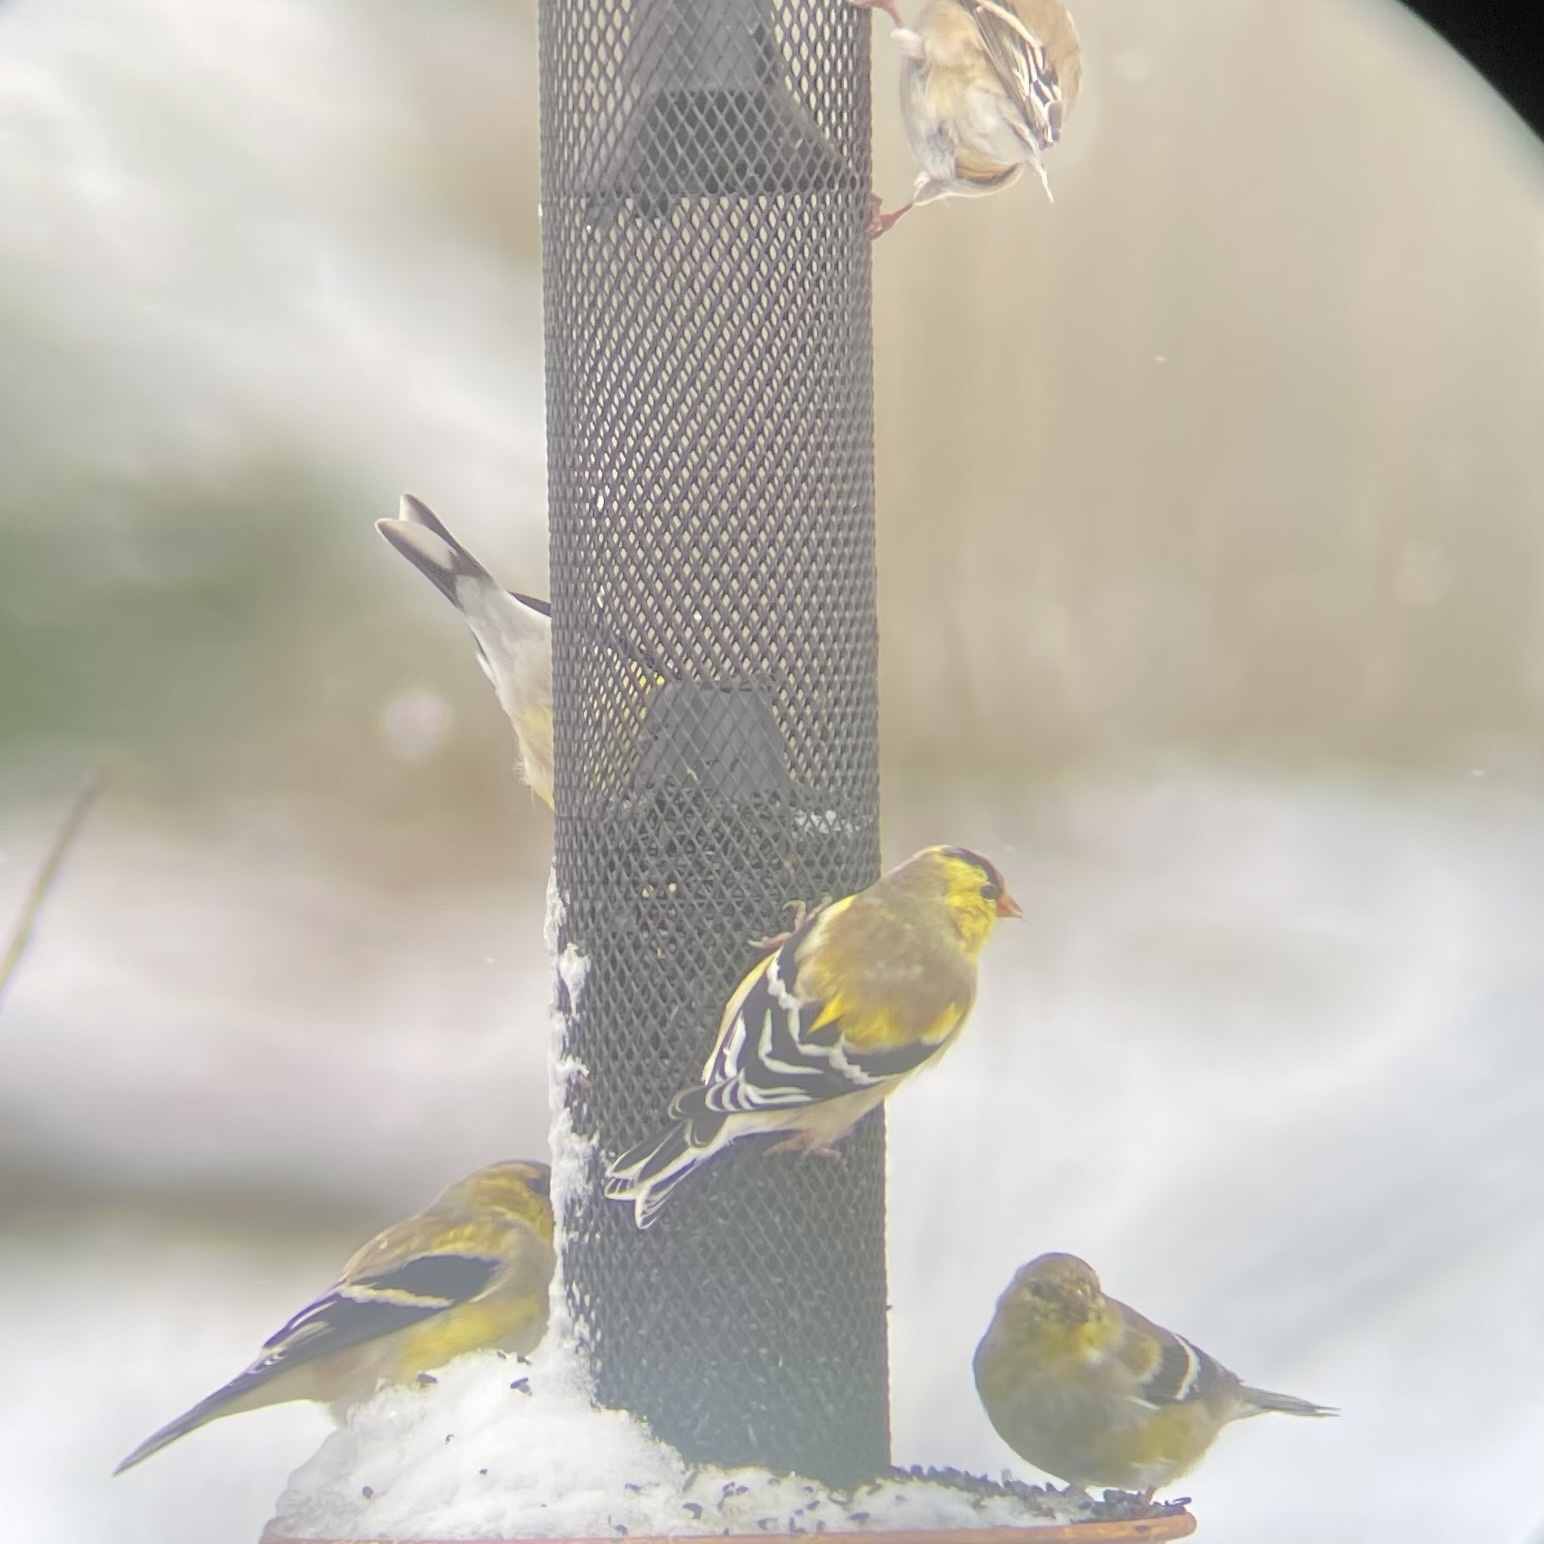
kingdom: Animalia
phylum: Chordata
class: Aves
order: Passeriformes
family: Fringillidae
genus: Spinus
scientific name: Spinus tristis
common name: American goldfinch
